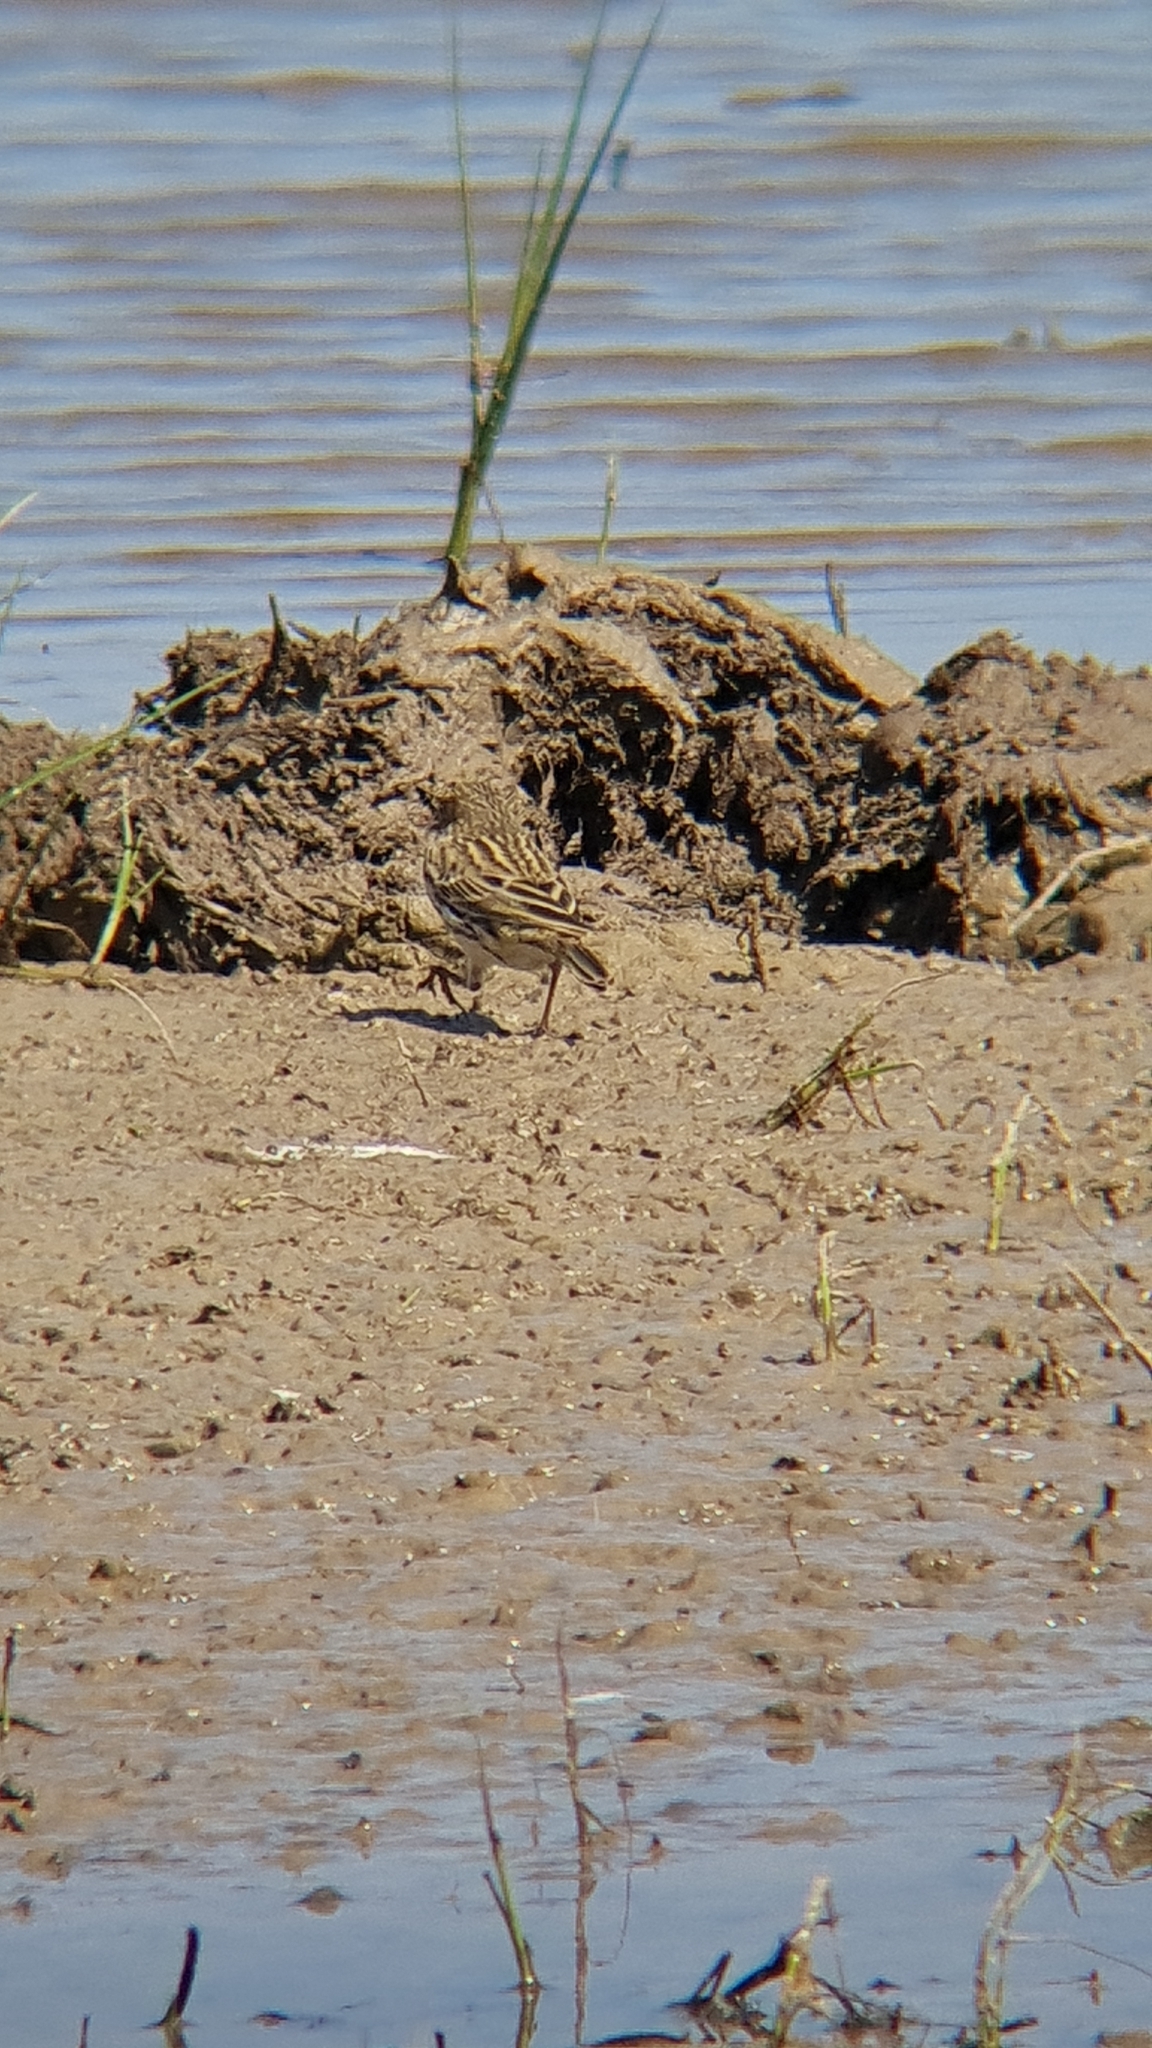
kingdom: Animalia
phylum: Chordata
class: Aves
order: Passeriformes
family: Motacillidae
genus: Anthus
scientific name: Anthus pratensis
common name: Meadow pipit
